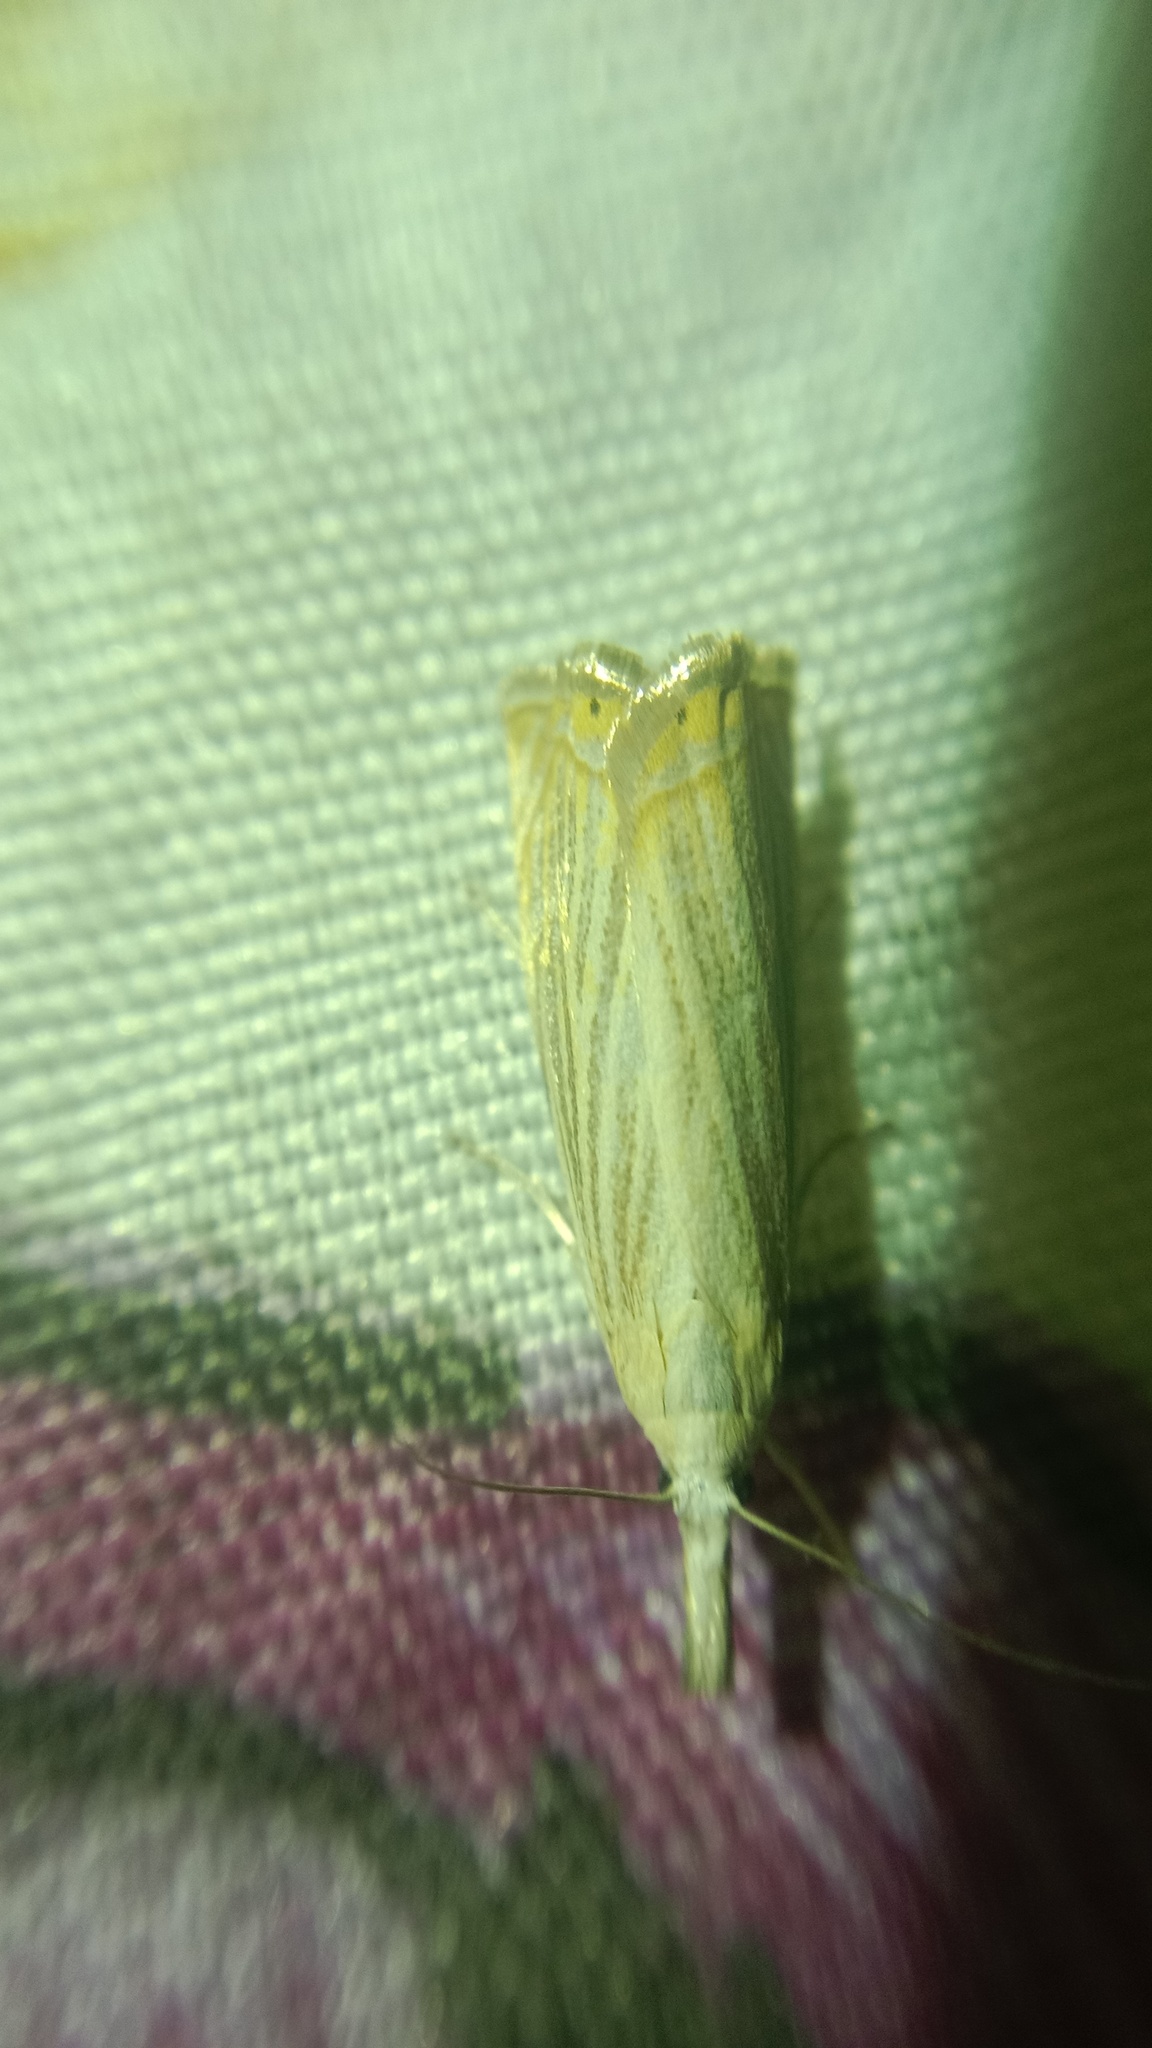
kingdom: Animalia
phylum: Arthropoda
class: Insecta
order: Lepidoptera
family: Crambidae
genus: Chrysoteuchia
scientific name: Chrysoteuchia culmella
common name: Garden grass-veneer
